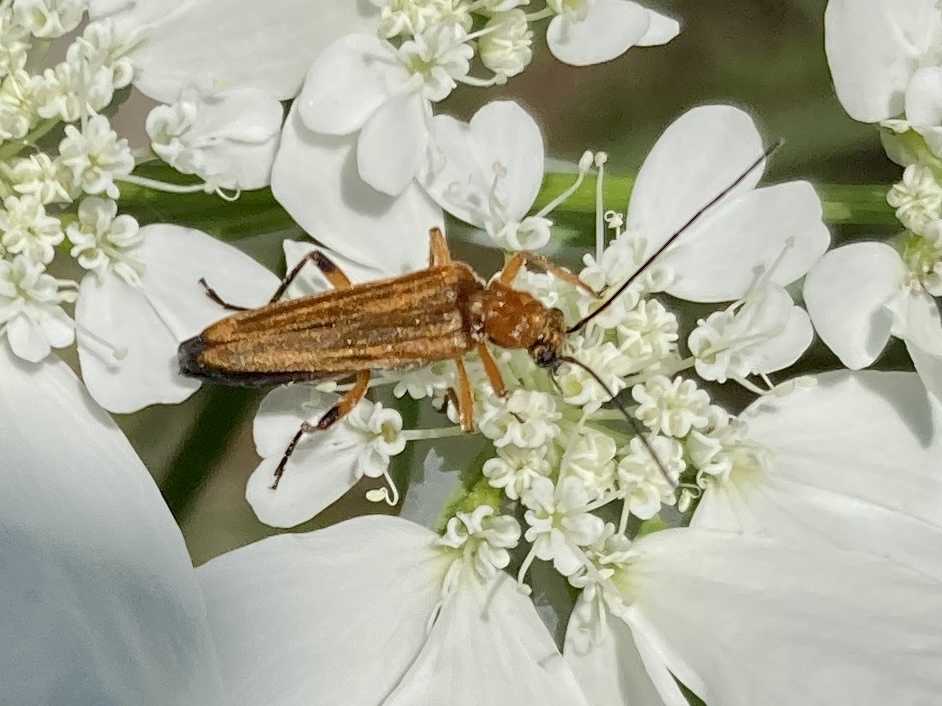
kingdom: Animalia
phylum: Arthropoda
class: Insecta
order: Coleoptera
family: Oedemeridae
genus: Oedemera
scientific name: Oedemera podagrariae
